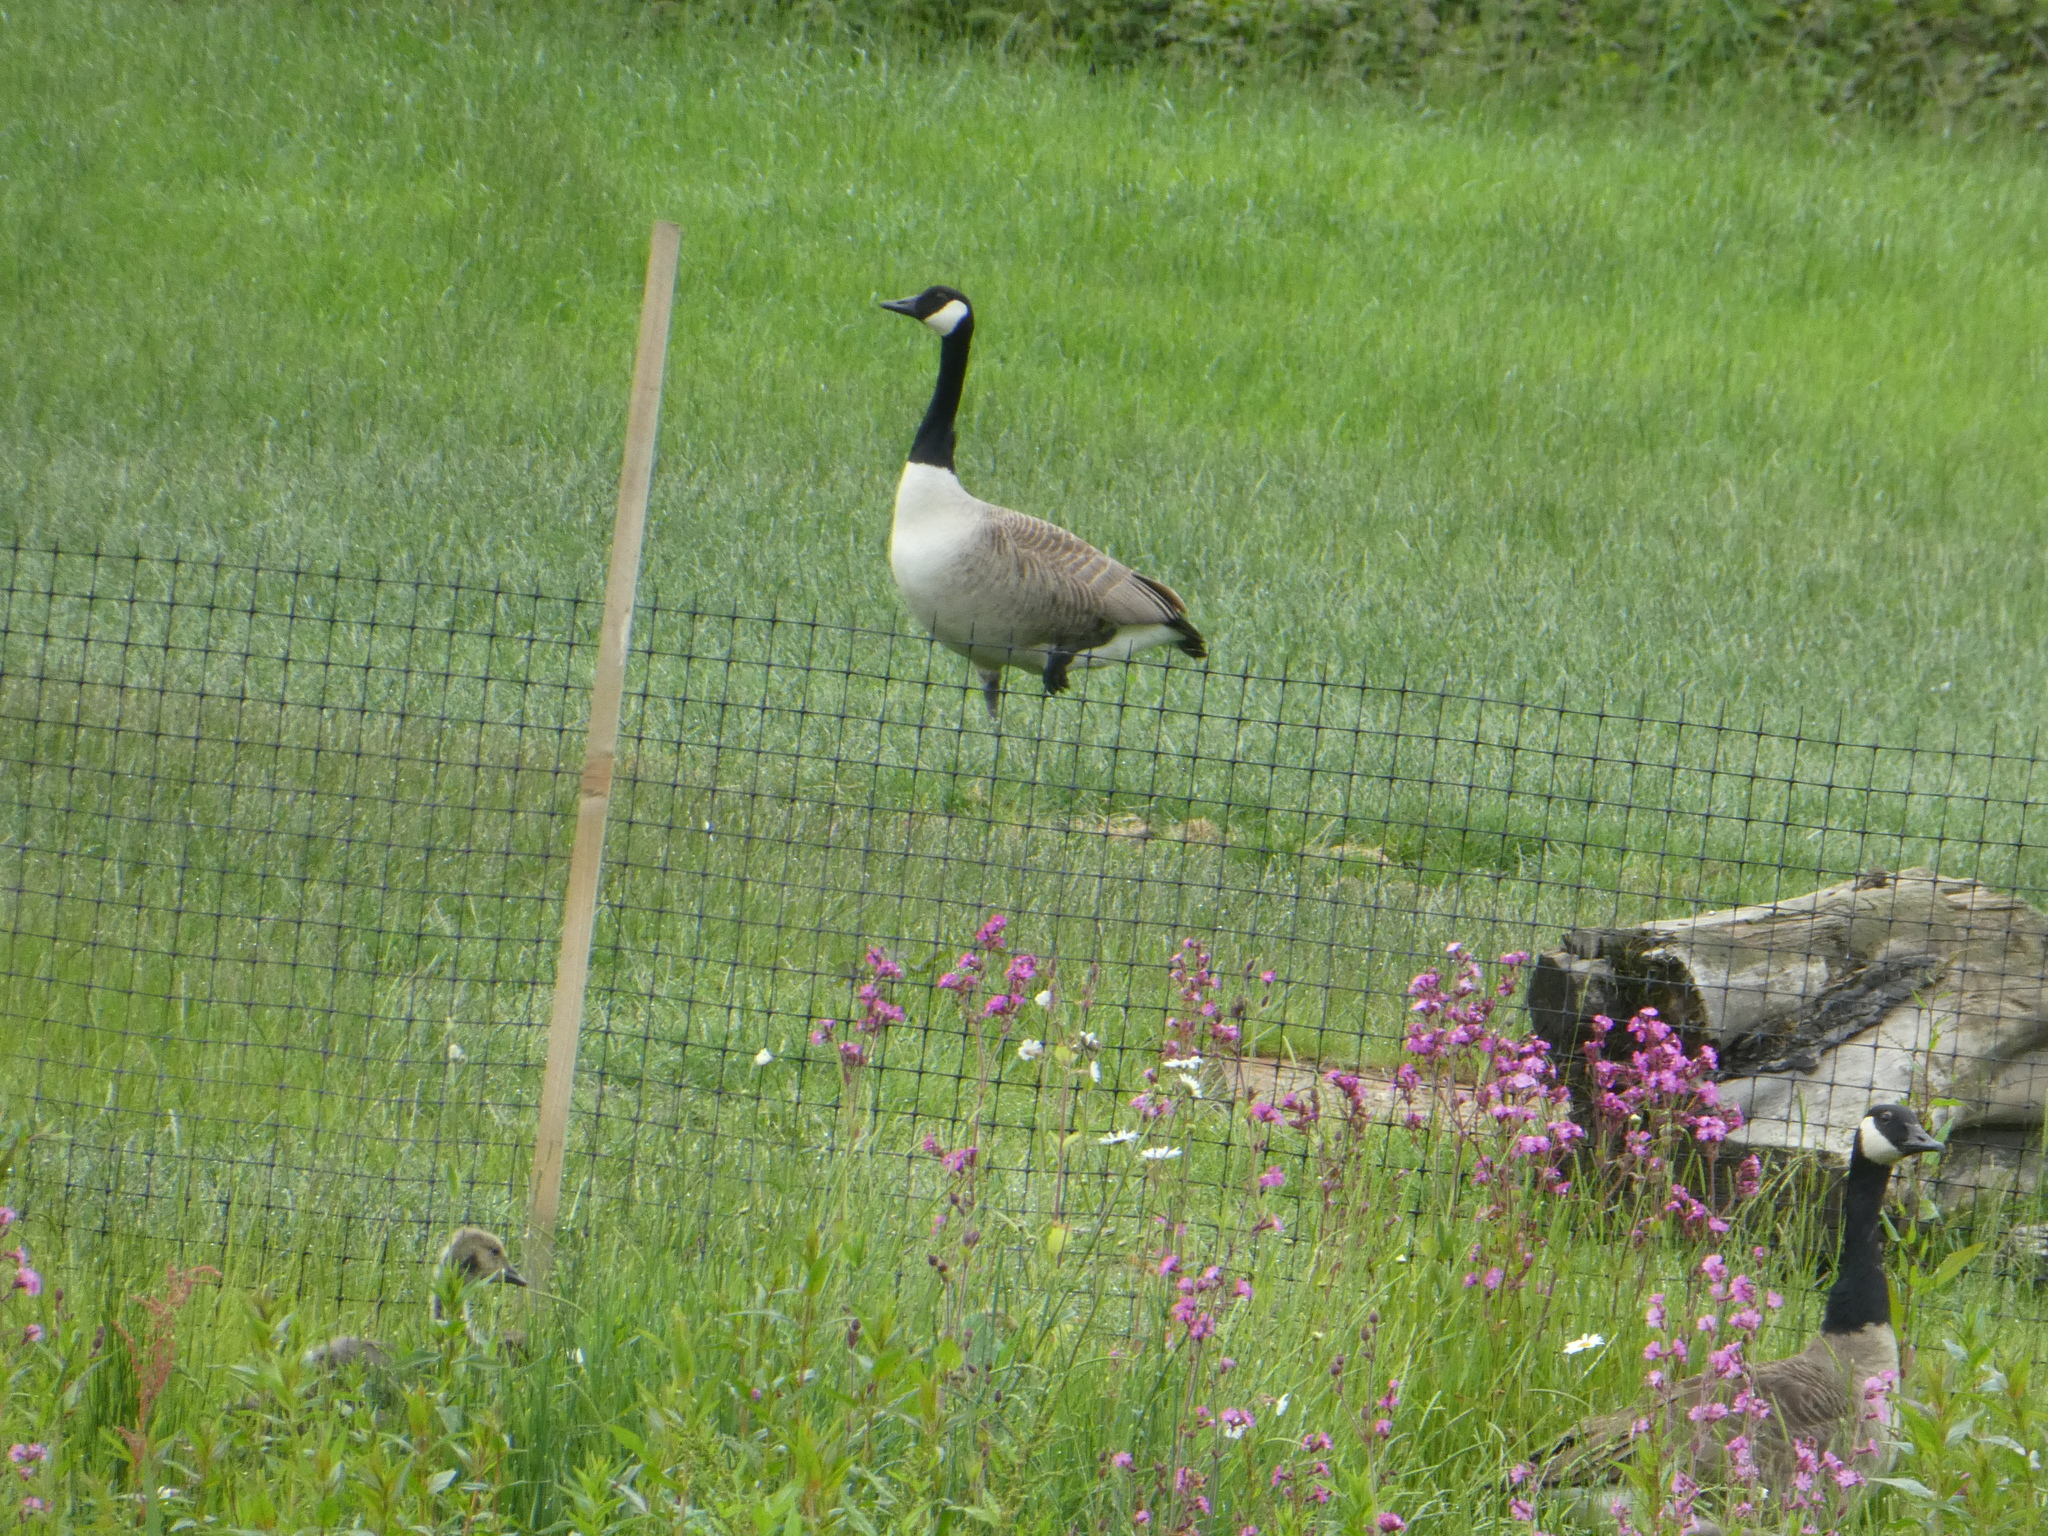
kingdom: Animalia
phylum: Chordata
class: Aves
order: Anseriformes
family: Anatidae
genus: Branta
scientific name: Branta canadensis
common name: Canada goose
